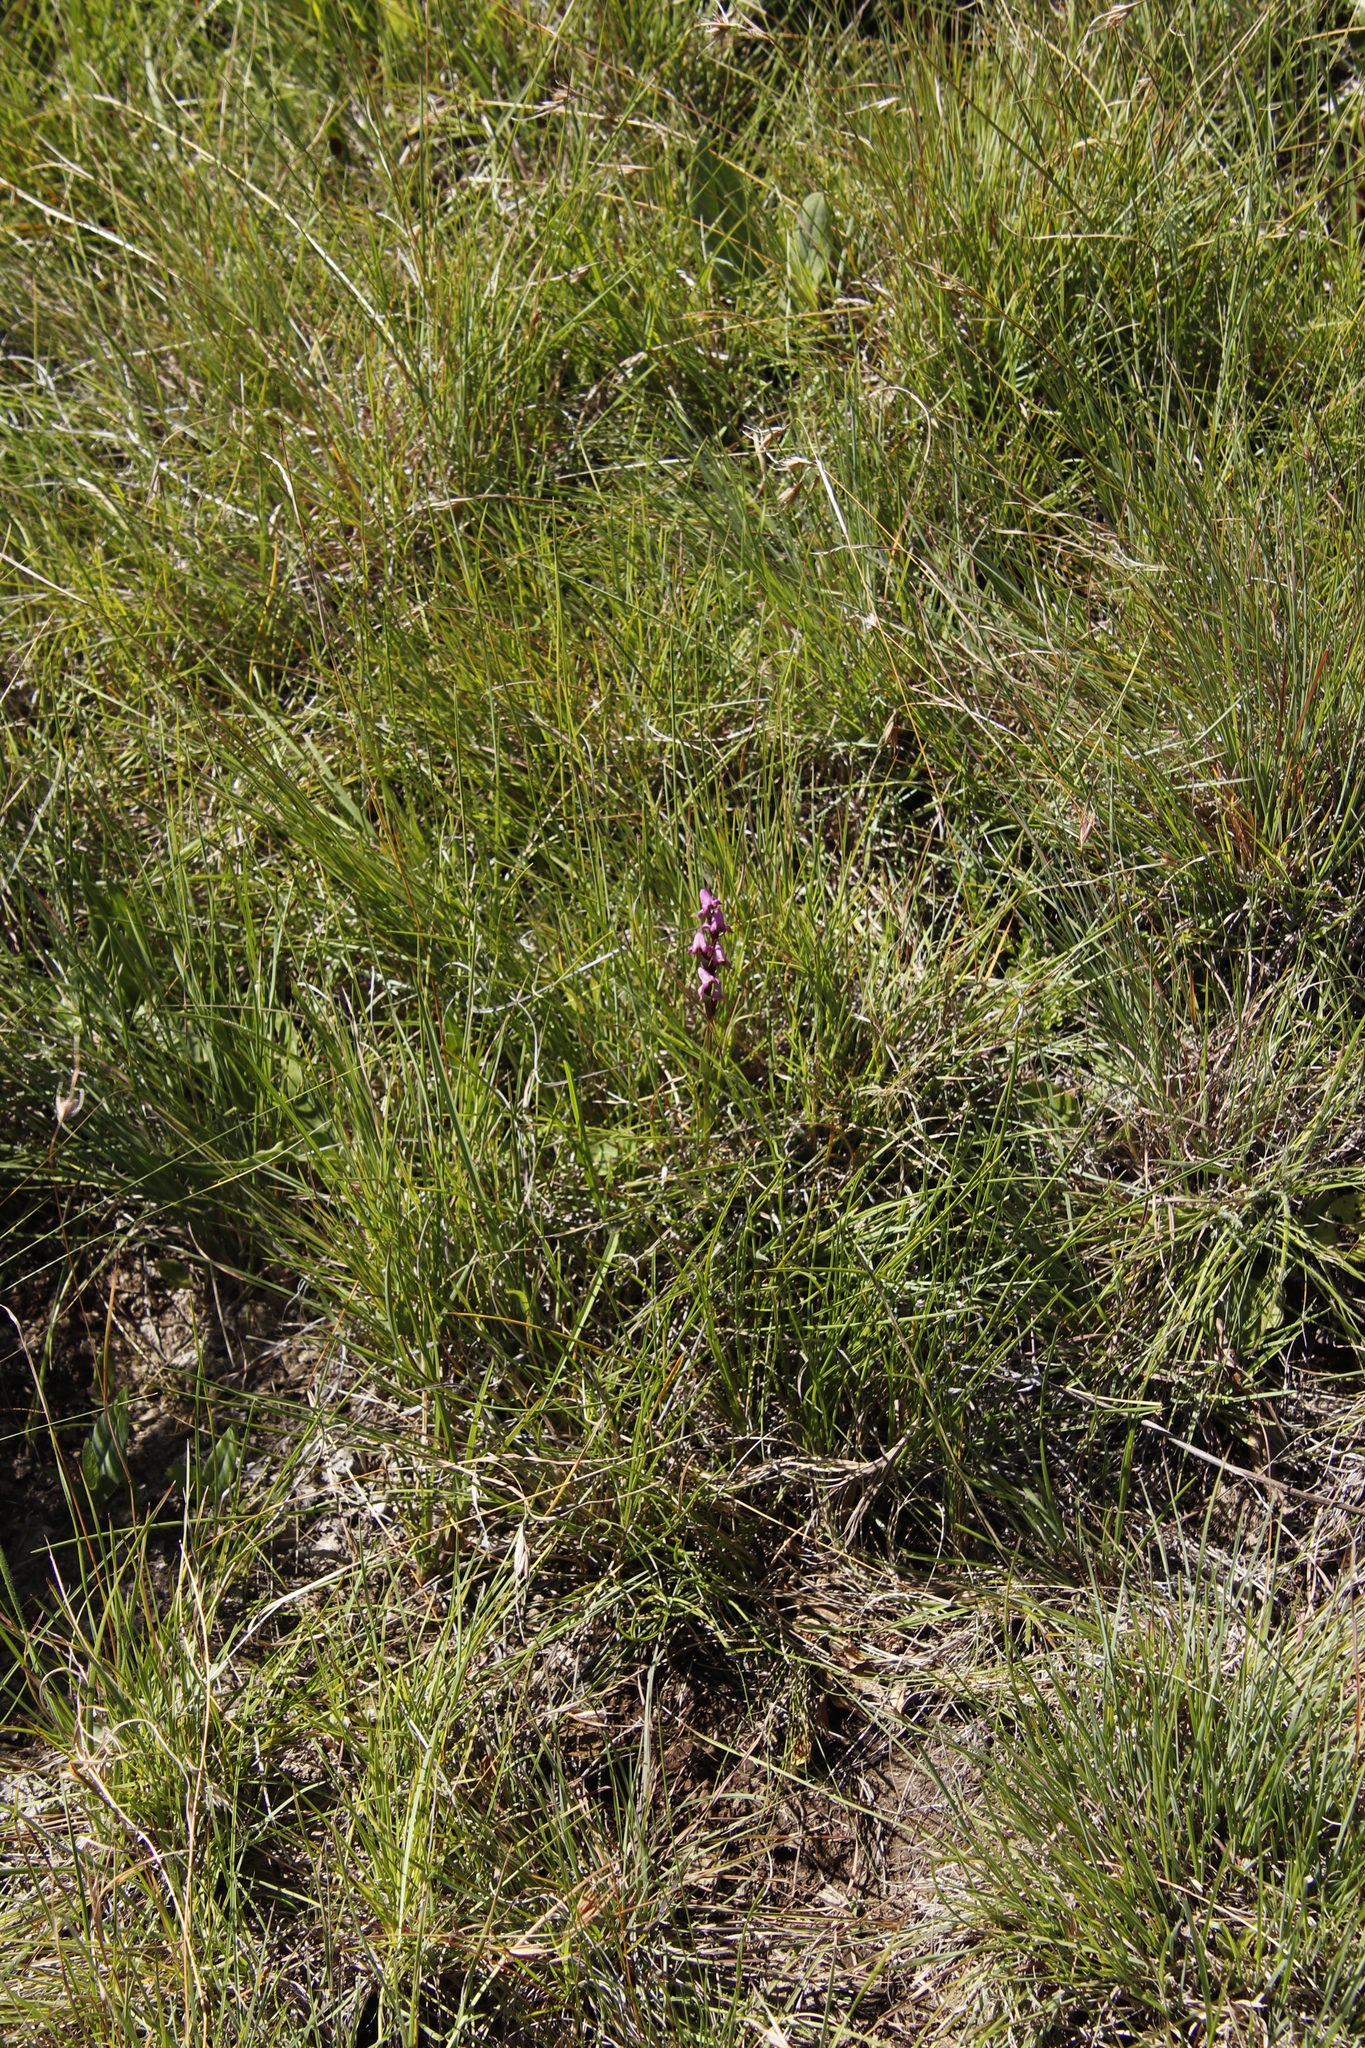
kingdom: Plantae
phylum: Tracheophyta
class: Liliopsida
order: Asparagales
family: Orchidaceae
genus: Disperis
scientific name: Disperis tysonii
